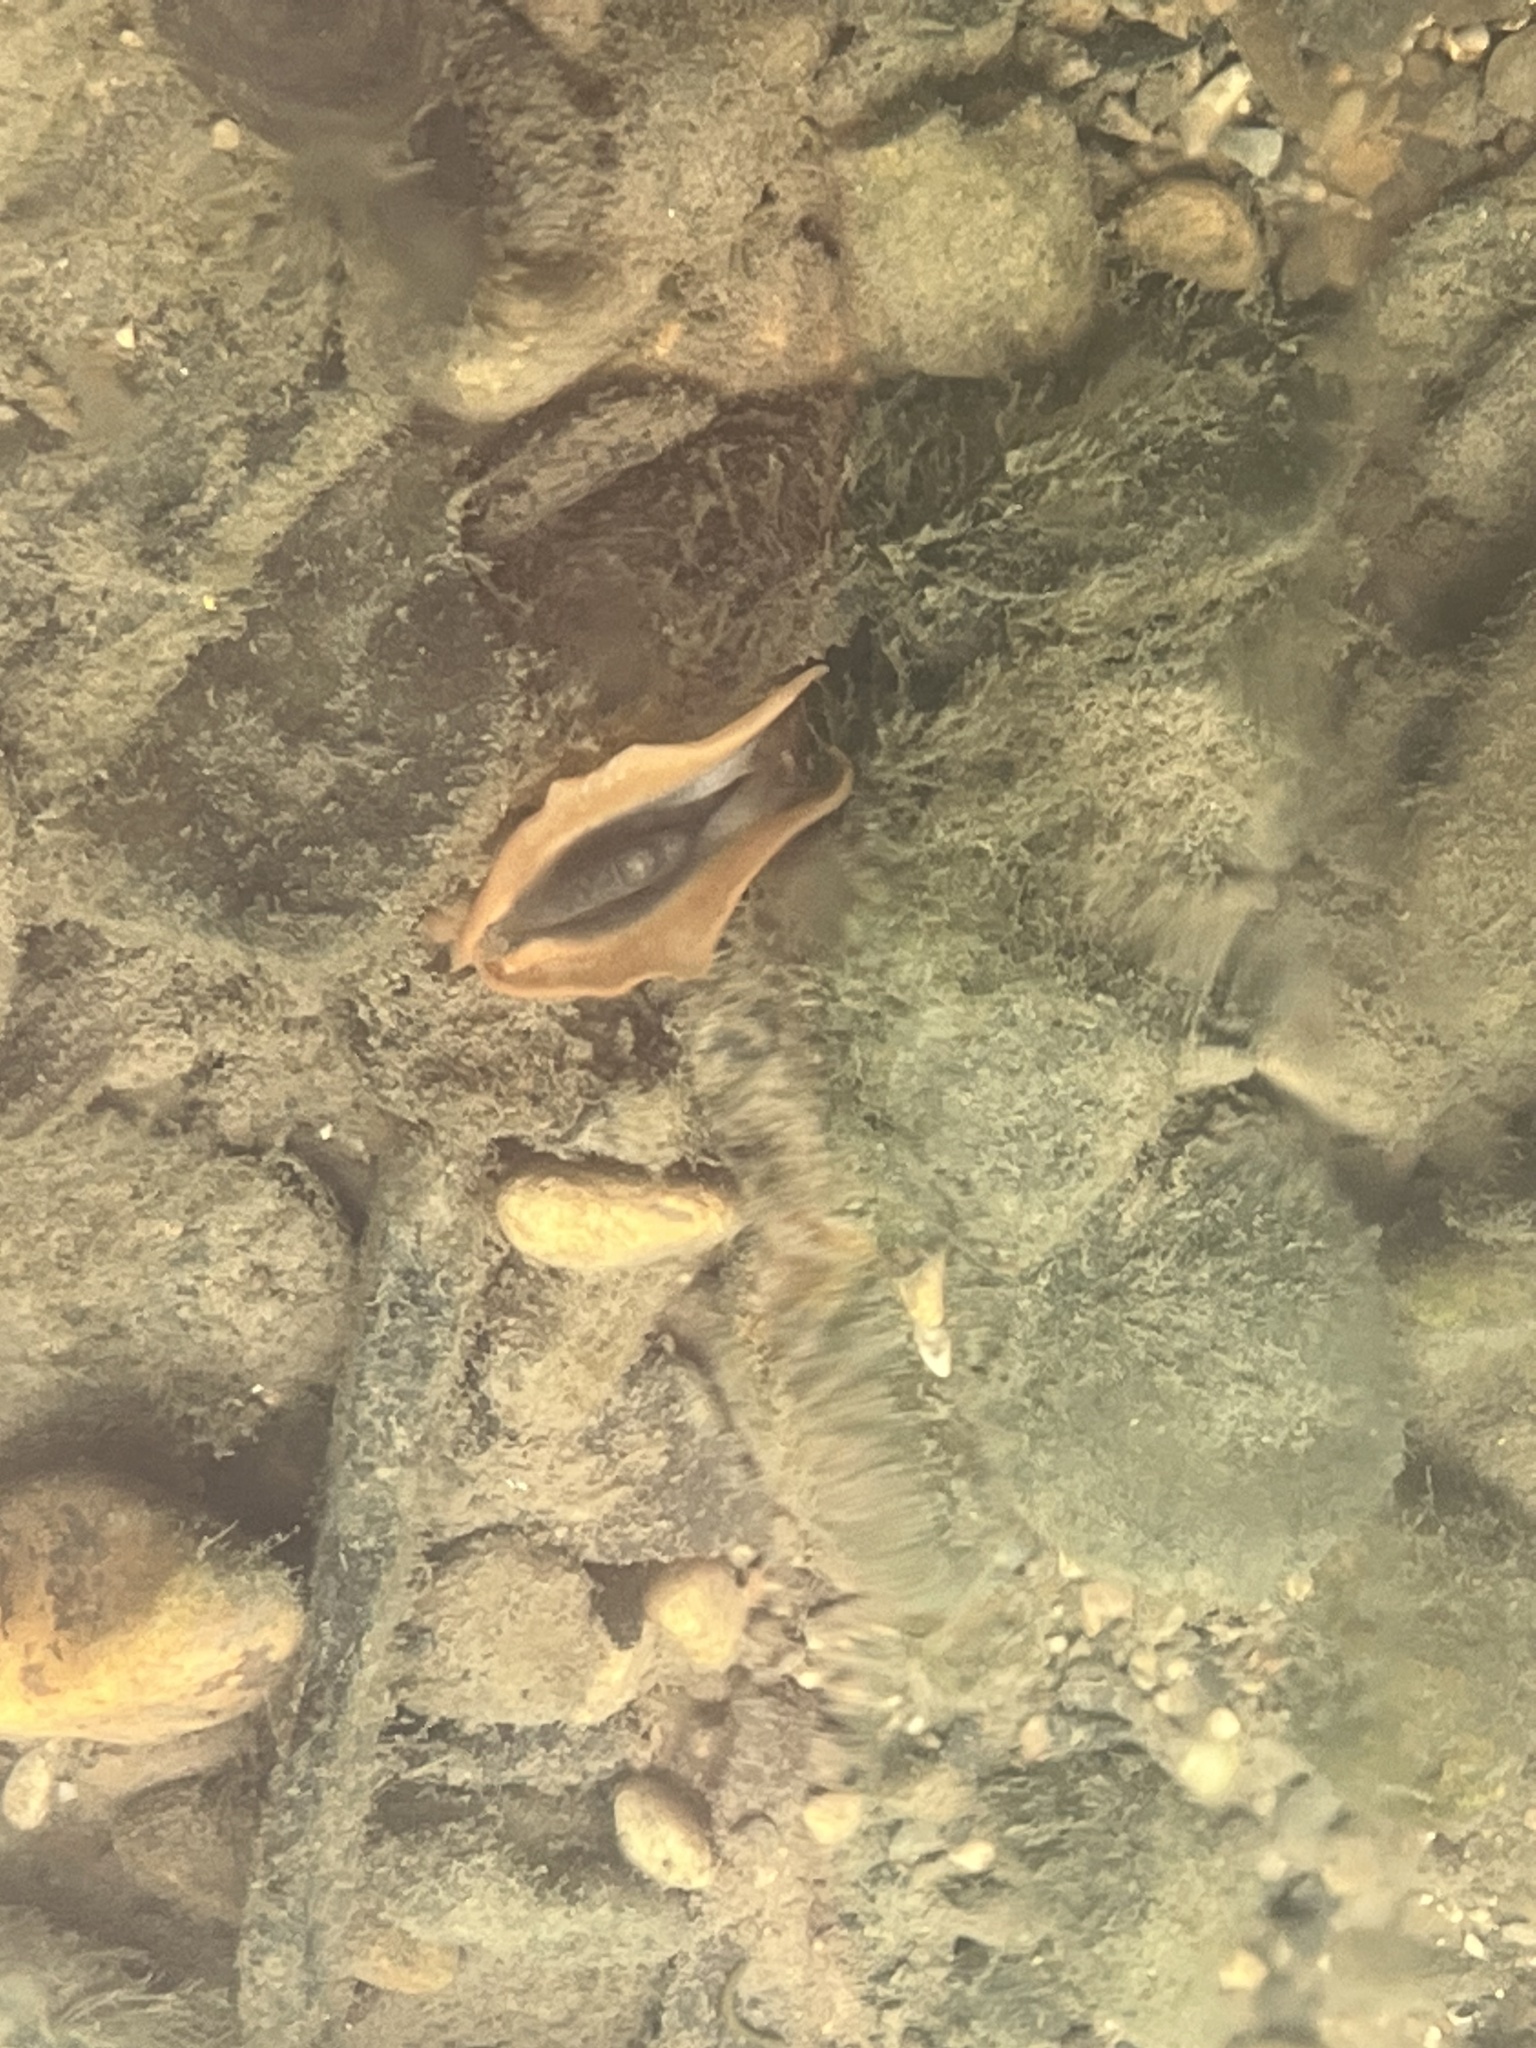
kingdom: Animalia
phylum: Mollusca
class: Bivalvia
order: Unionida
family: Unionidae
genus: Lampsilis
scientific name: Lampsilis fasciola
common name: Wavyrayed lampmussel
